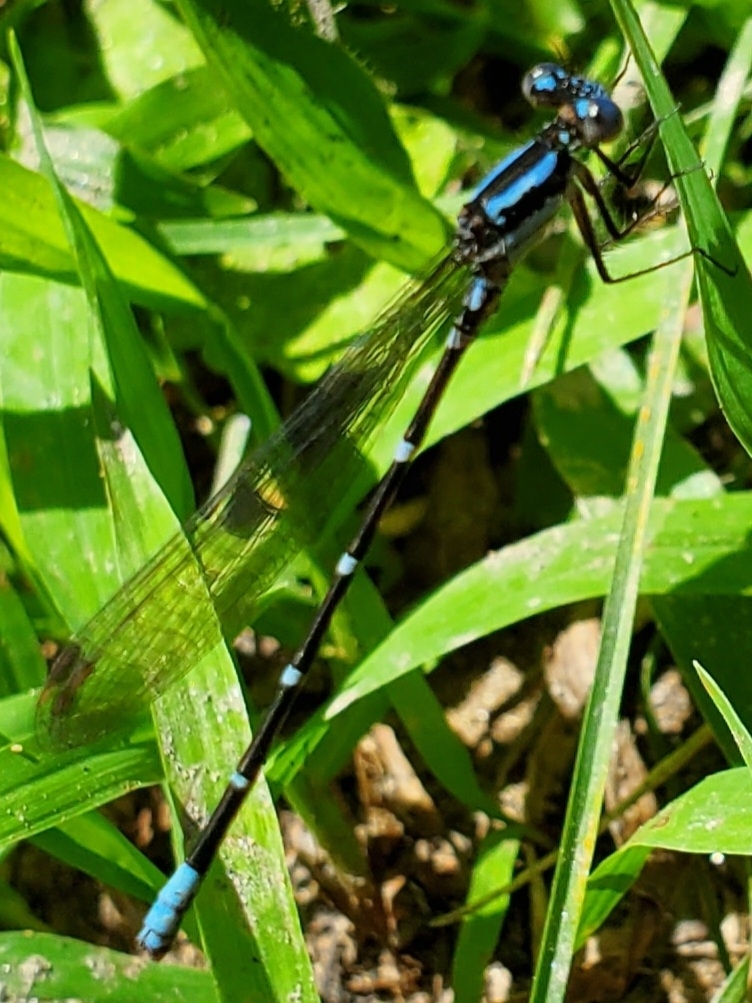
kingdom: Animalia
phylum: Arthropoda
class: Insecta
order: Odonata
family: Coenagrionidae
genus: Argia
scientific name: Argia sedula
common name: Blue-ringed dancer
